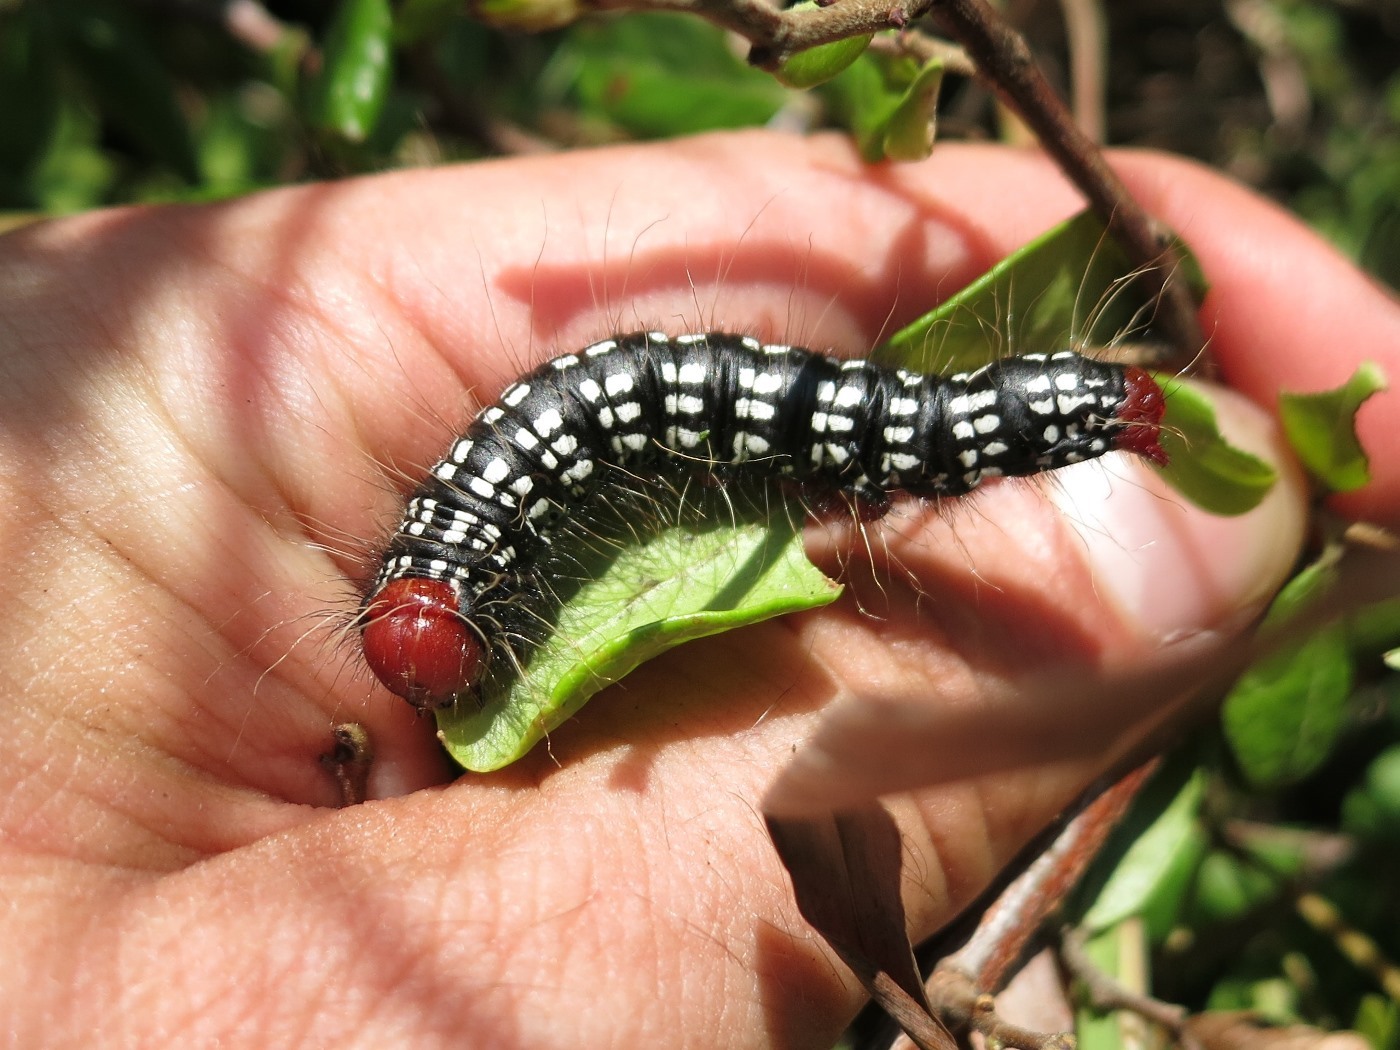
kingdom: Animalia
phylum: Arthropoda
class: Insecta
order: Lepidoptera
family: Notodontidae
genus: Datana
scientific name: Datana major
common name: Azalea caterpillar
